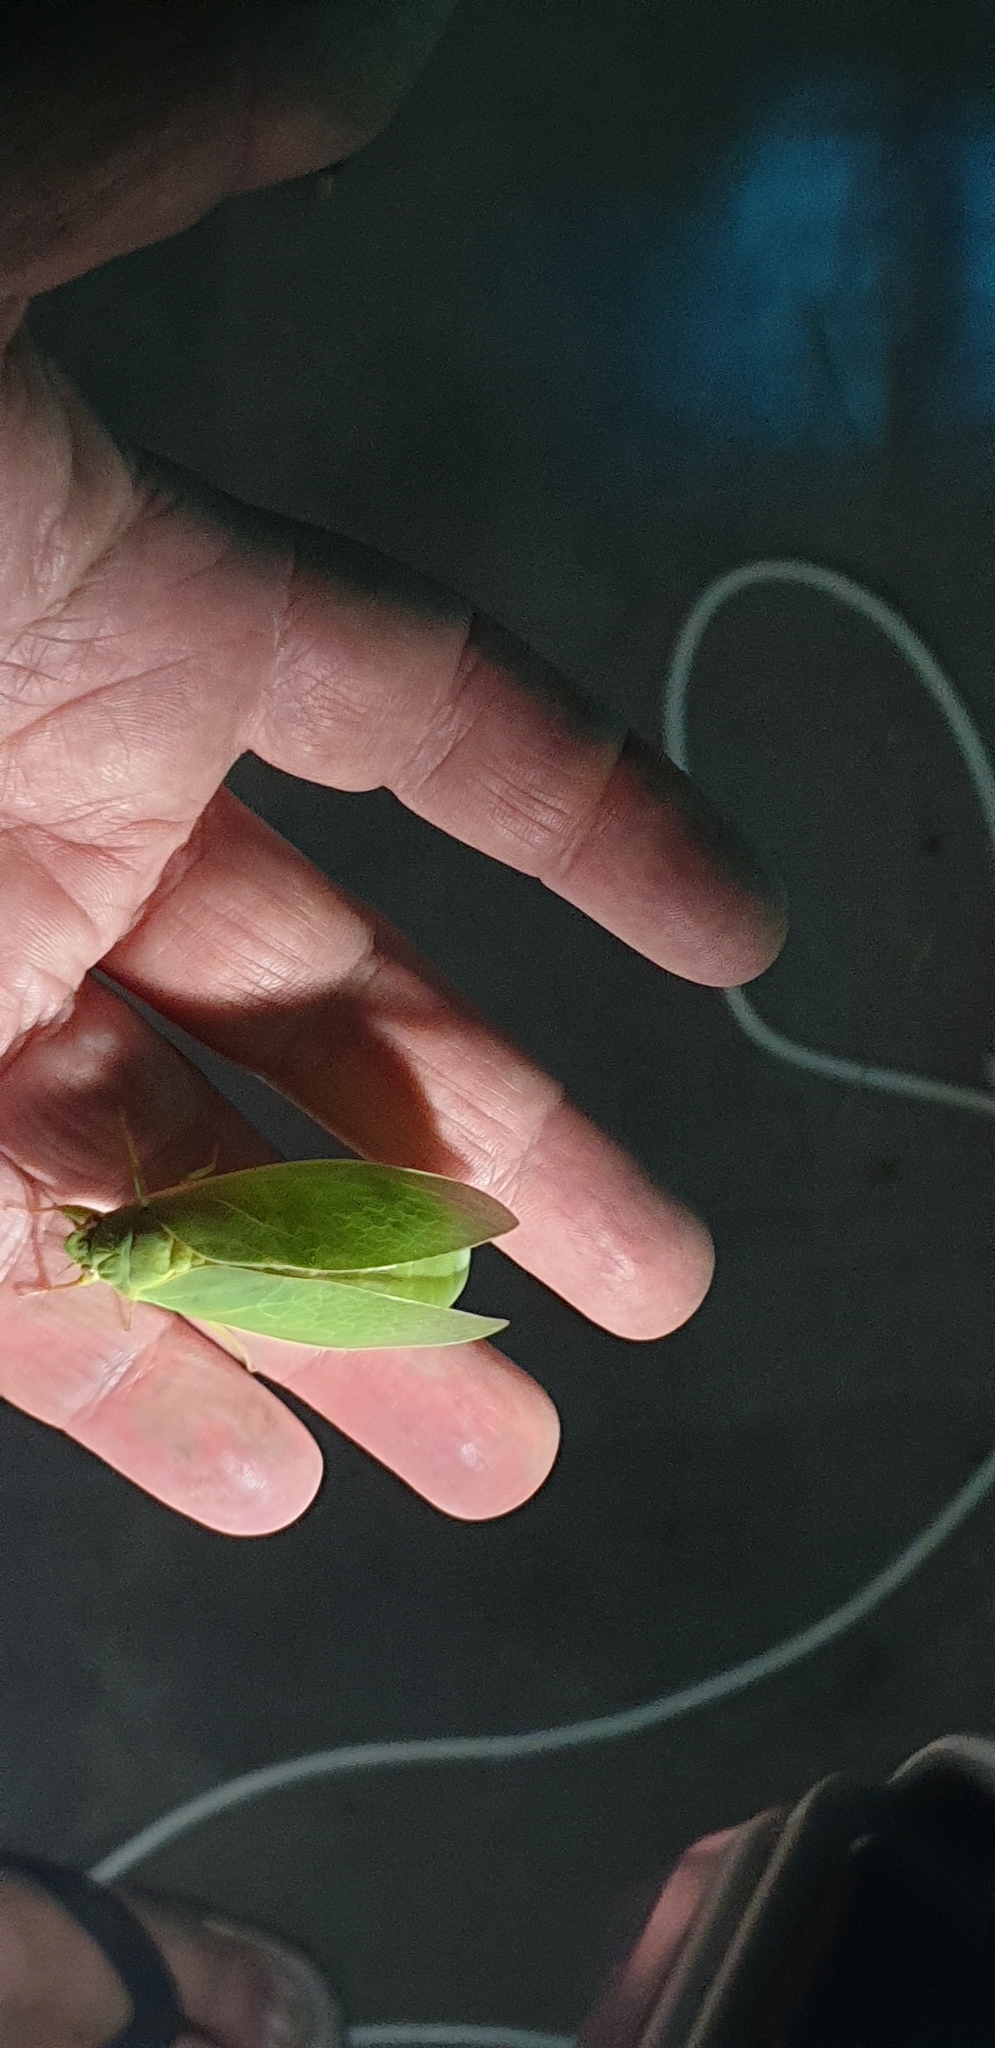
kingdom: Animalia
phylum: Arthropoda
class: Insecta
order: Hemiptera
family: Cicadidae
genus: Cystosoma
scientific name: Cystosoma saundersii
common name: Bladder cicada
